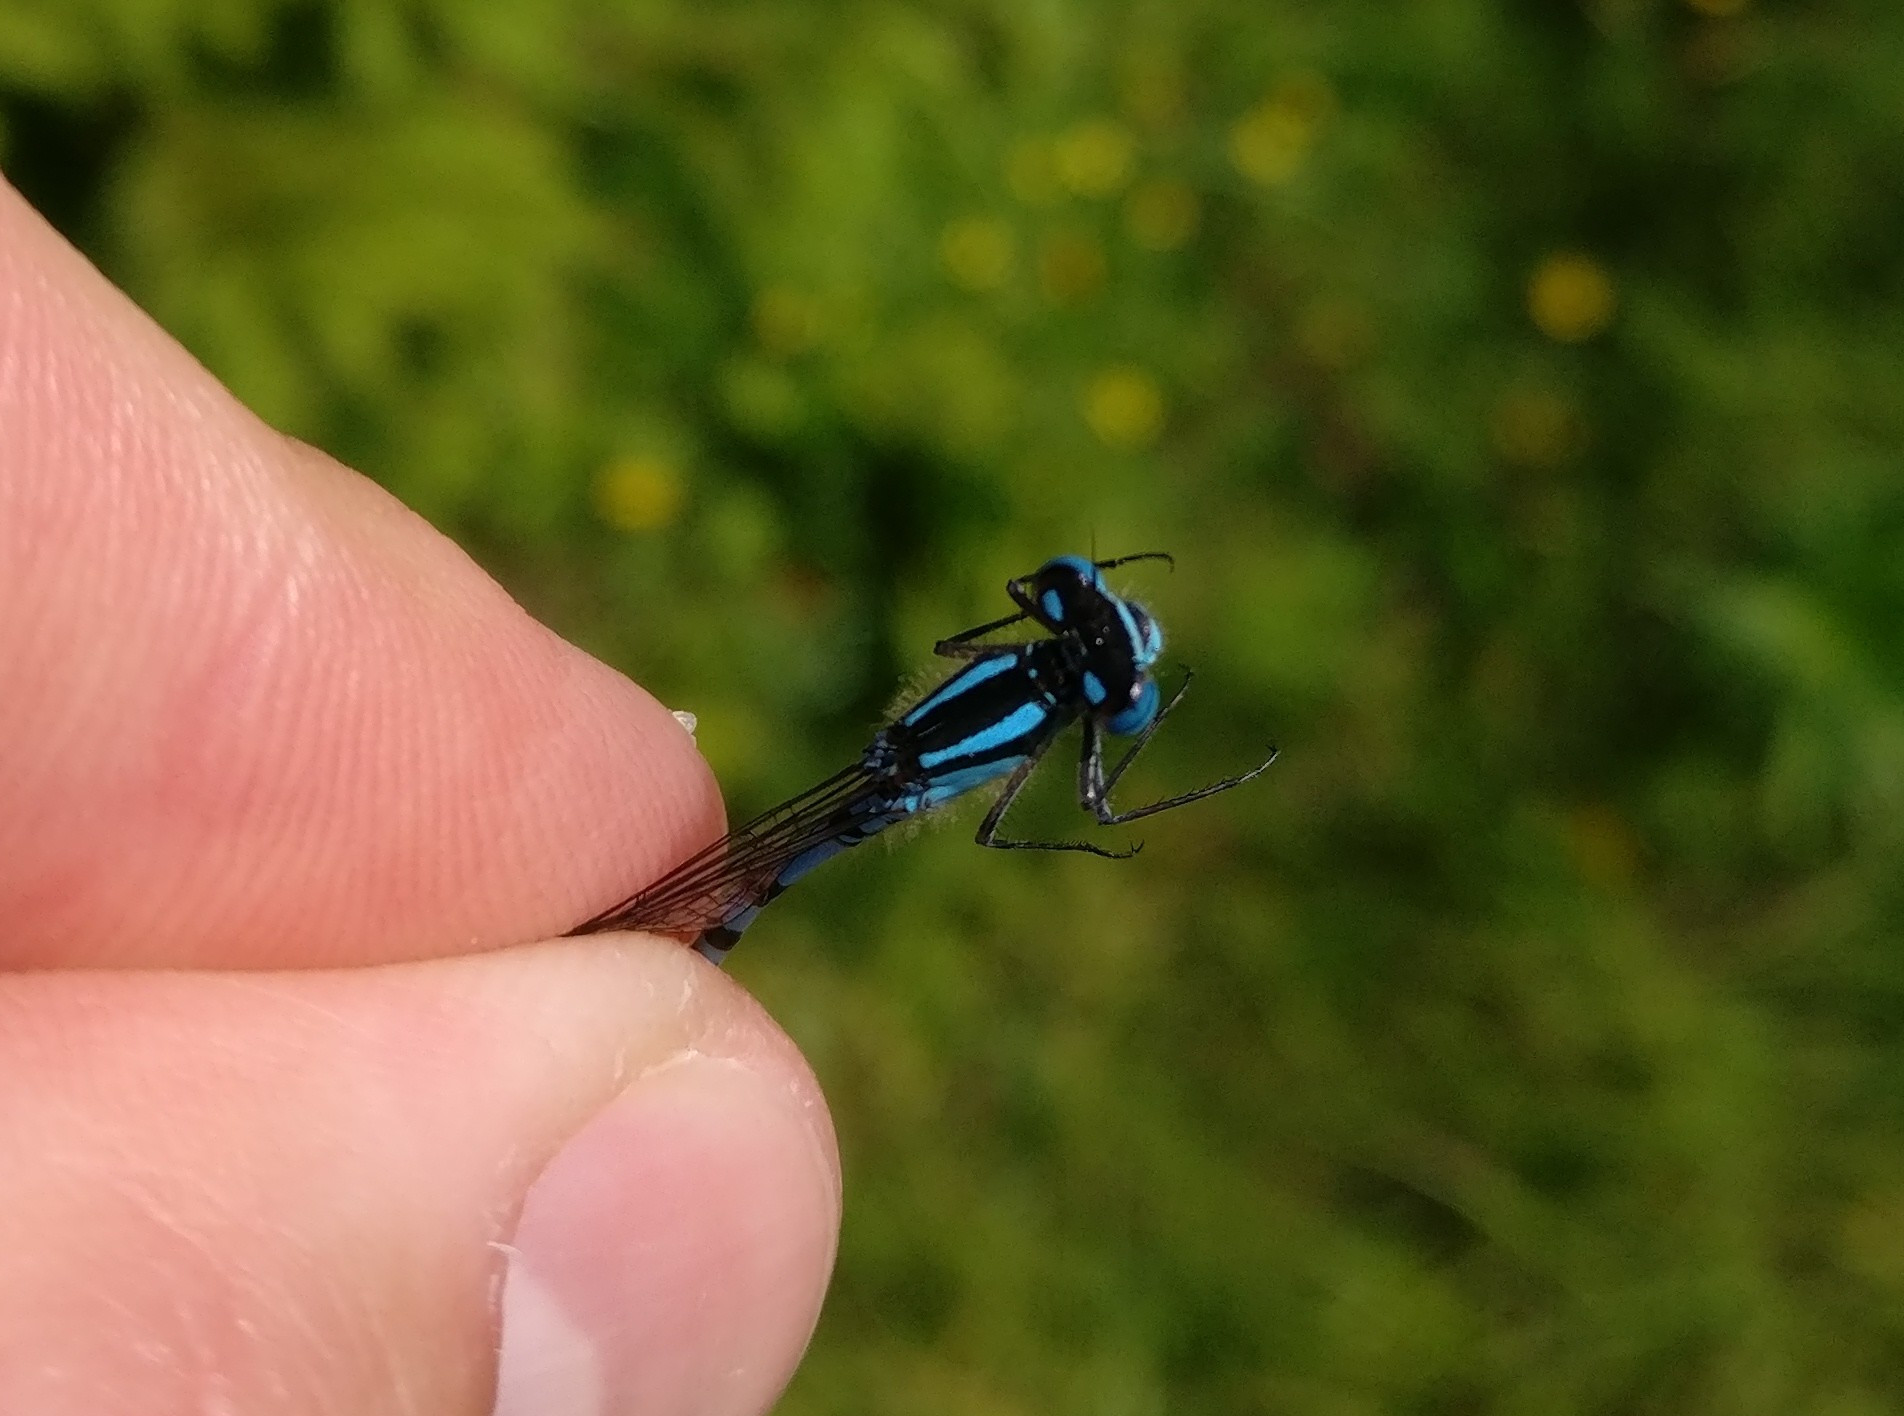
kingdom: Animalia
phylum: Arthropoda
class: Insecta
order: Odonata
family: Coenagrionidae
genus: Enallagma
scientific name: Enallagma cyathigerum
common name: Common blue damselfly
